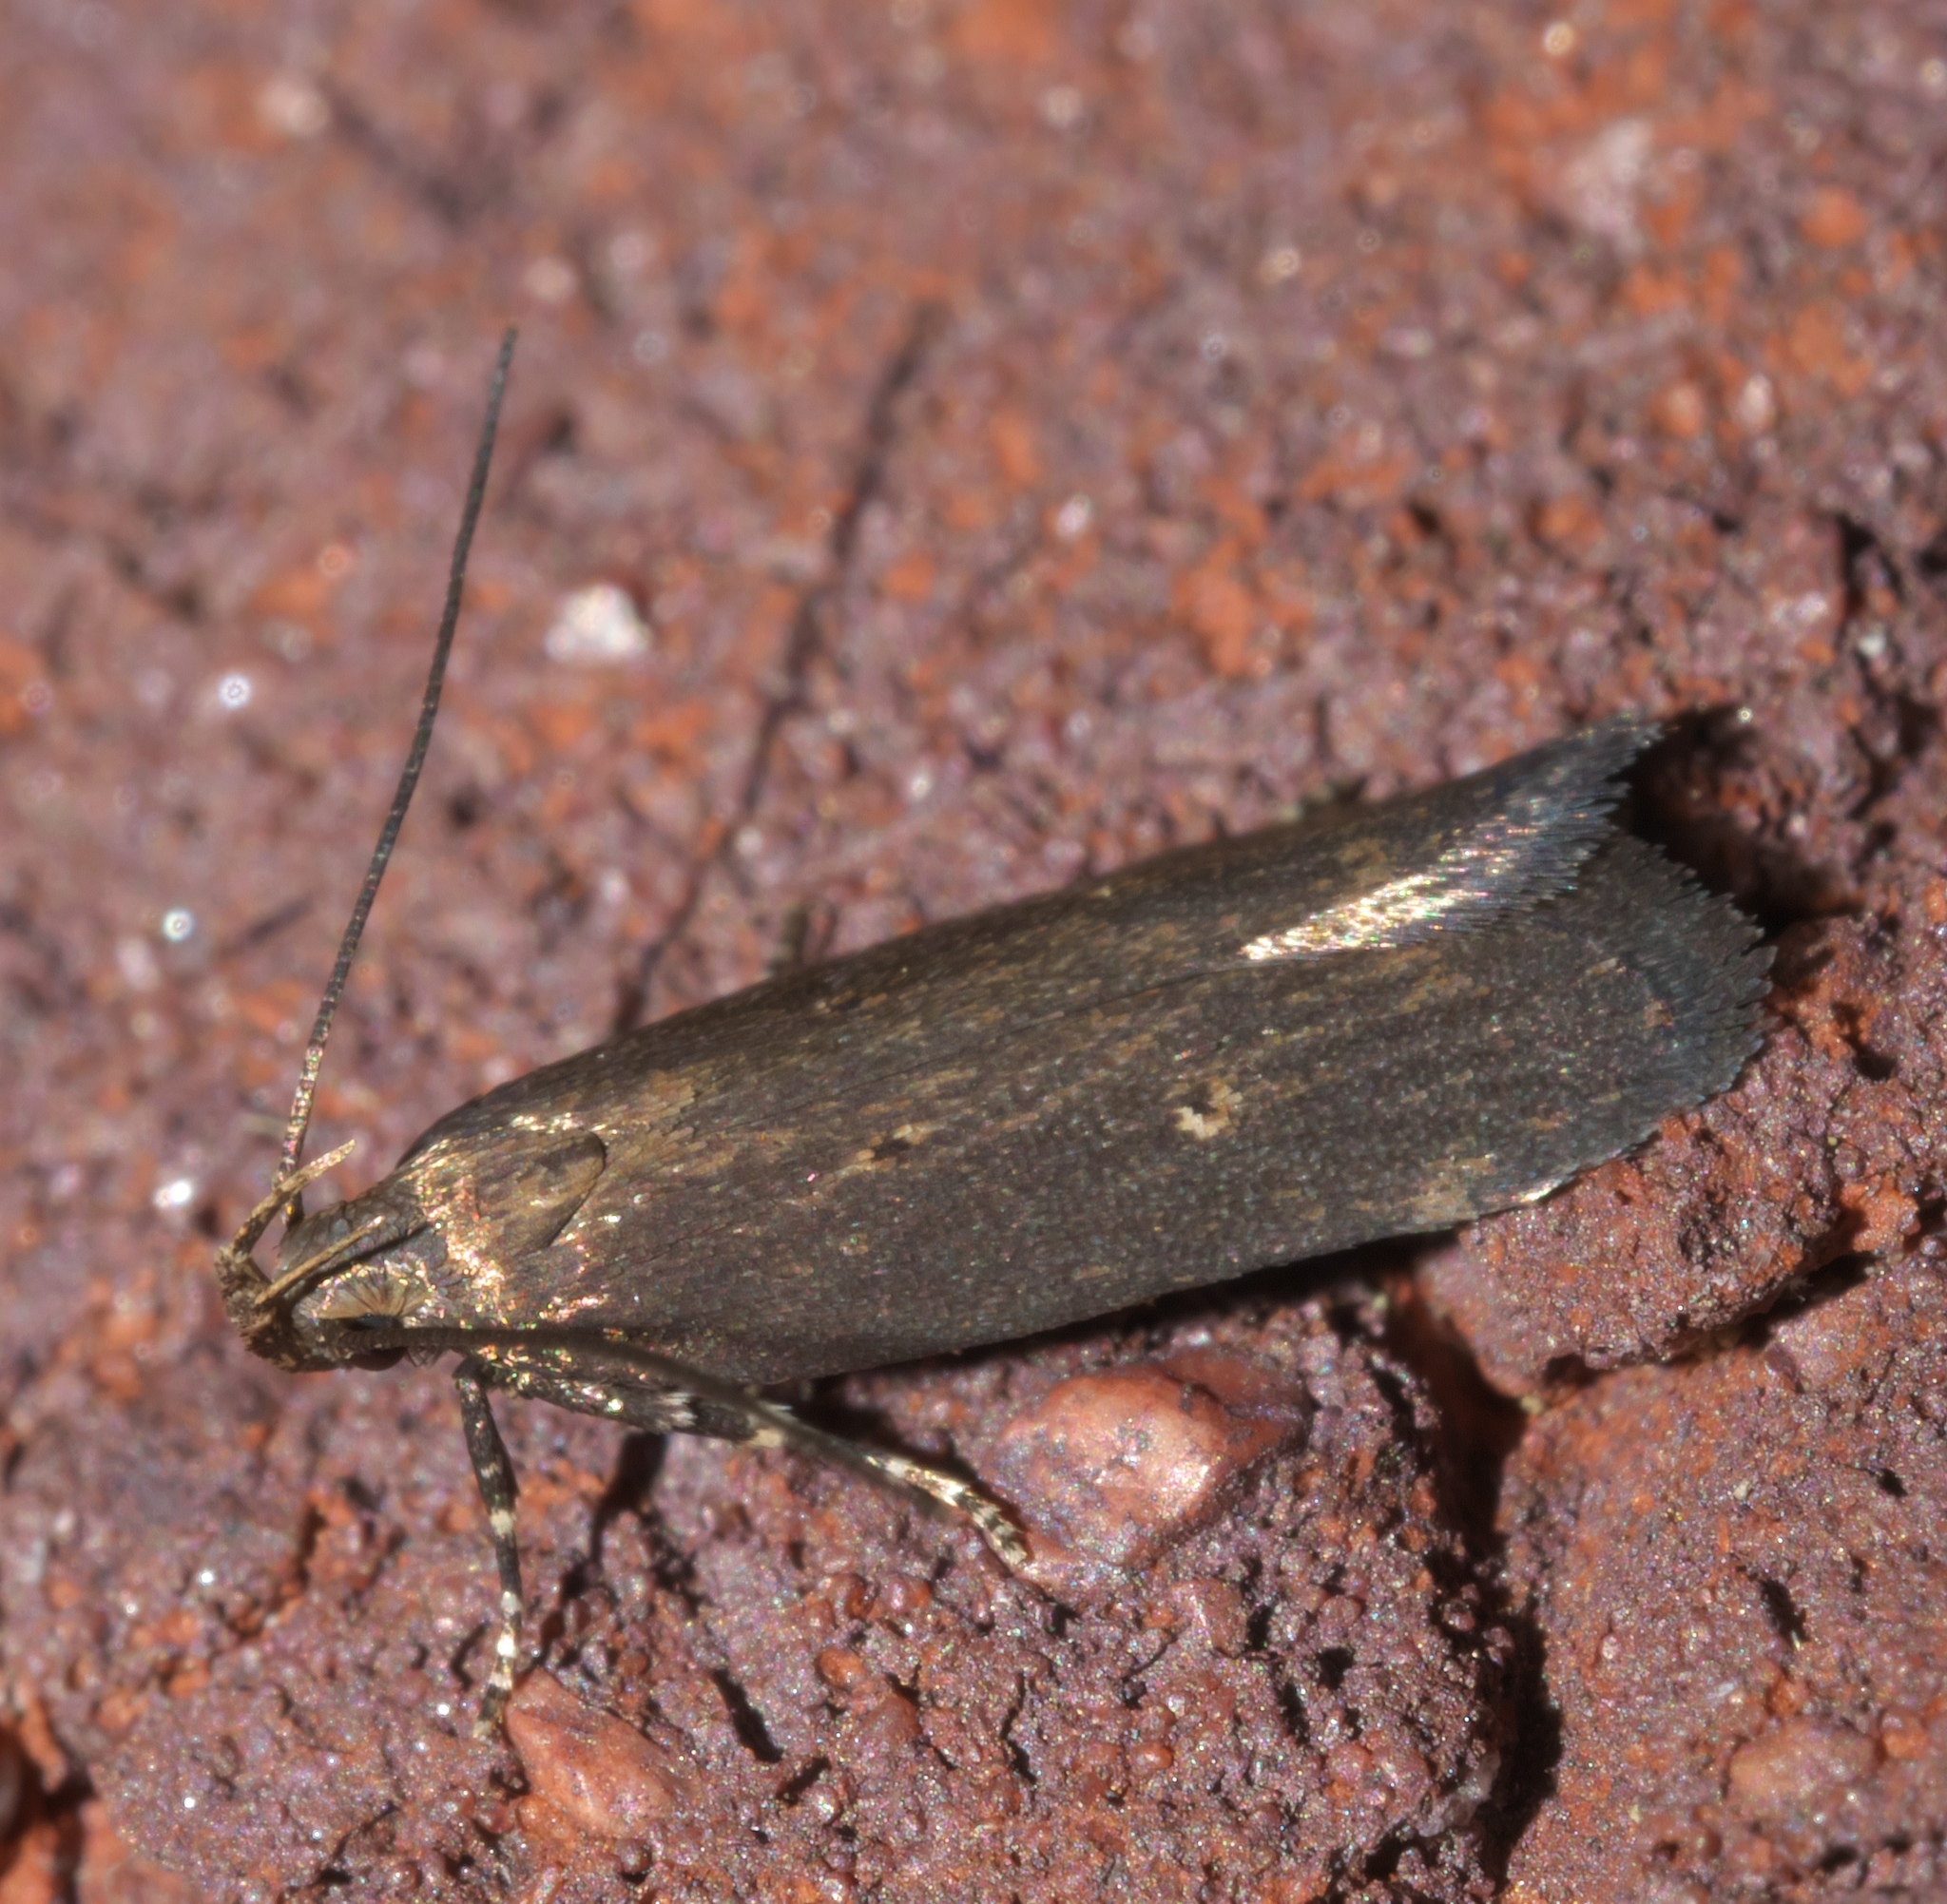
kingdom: Animalia
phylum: Arthropoda
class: Insecta
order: Lepidoptera
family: Gelechiidae
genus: Chionodes
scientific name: Chionodes discoocellella
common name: Eye-ringed chionodes moth
